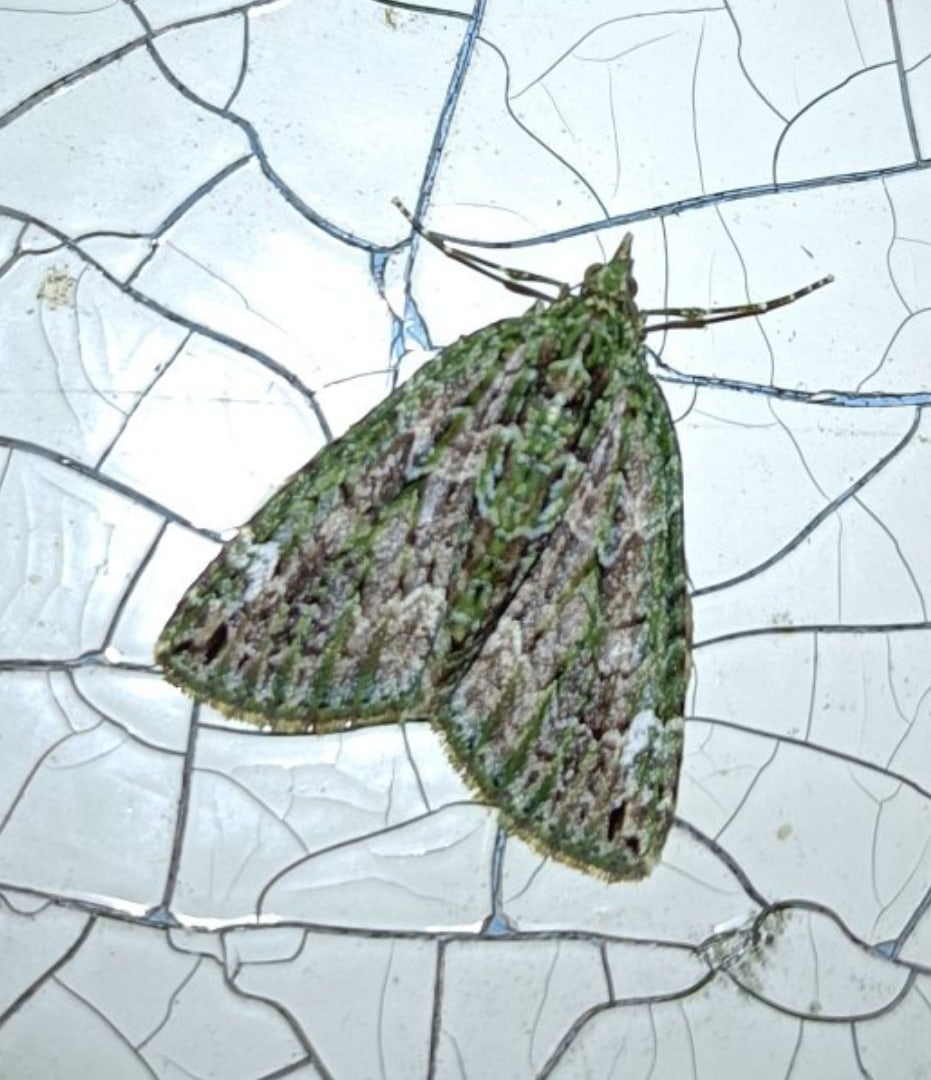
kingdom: Animalia
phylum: Arthropoda
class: Insecta
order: Lepidoptera
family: Geometridae
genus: Chloroclysta
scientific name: Chloroclysta siterata
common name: Red-green carpet
